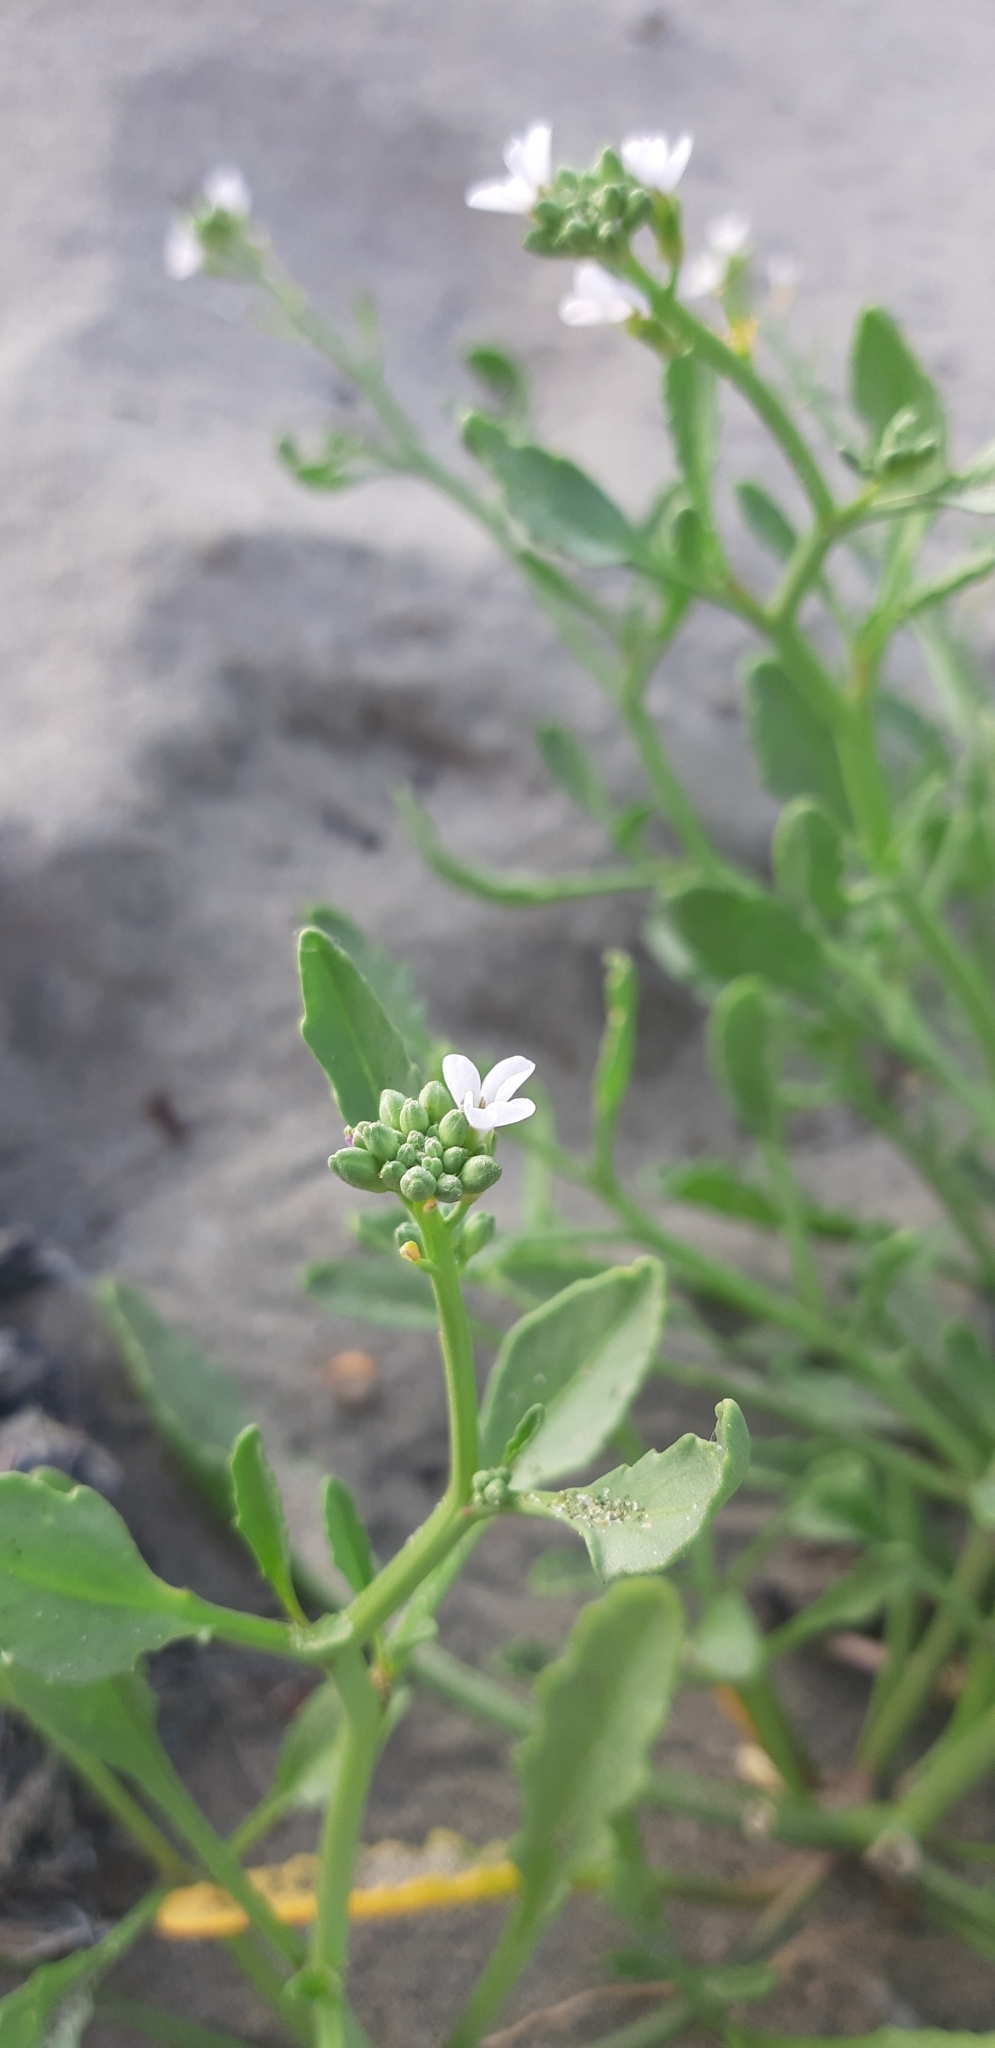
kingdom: Plantae
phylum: Tracheophyta
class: Magnoliopsida
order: Brassicales
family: Brassicaceae
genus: Cakile
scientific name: Cakile maritima
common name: Sea rocket
